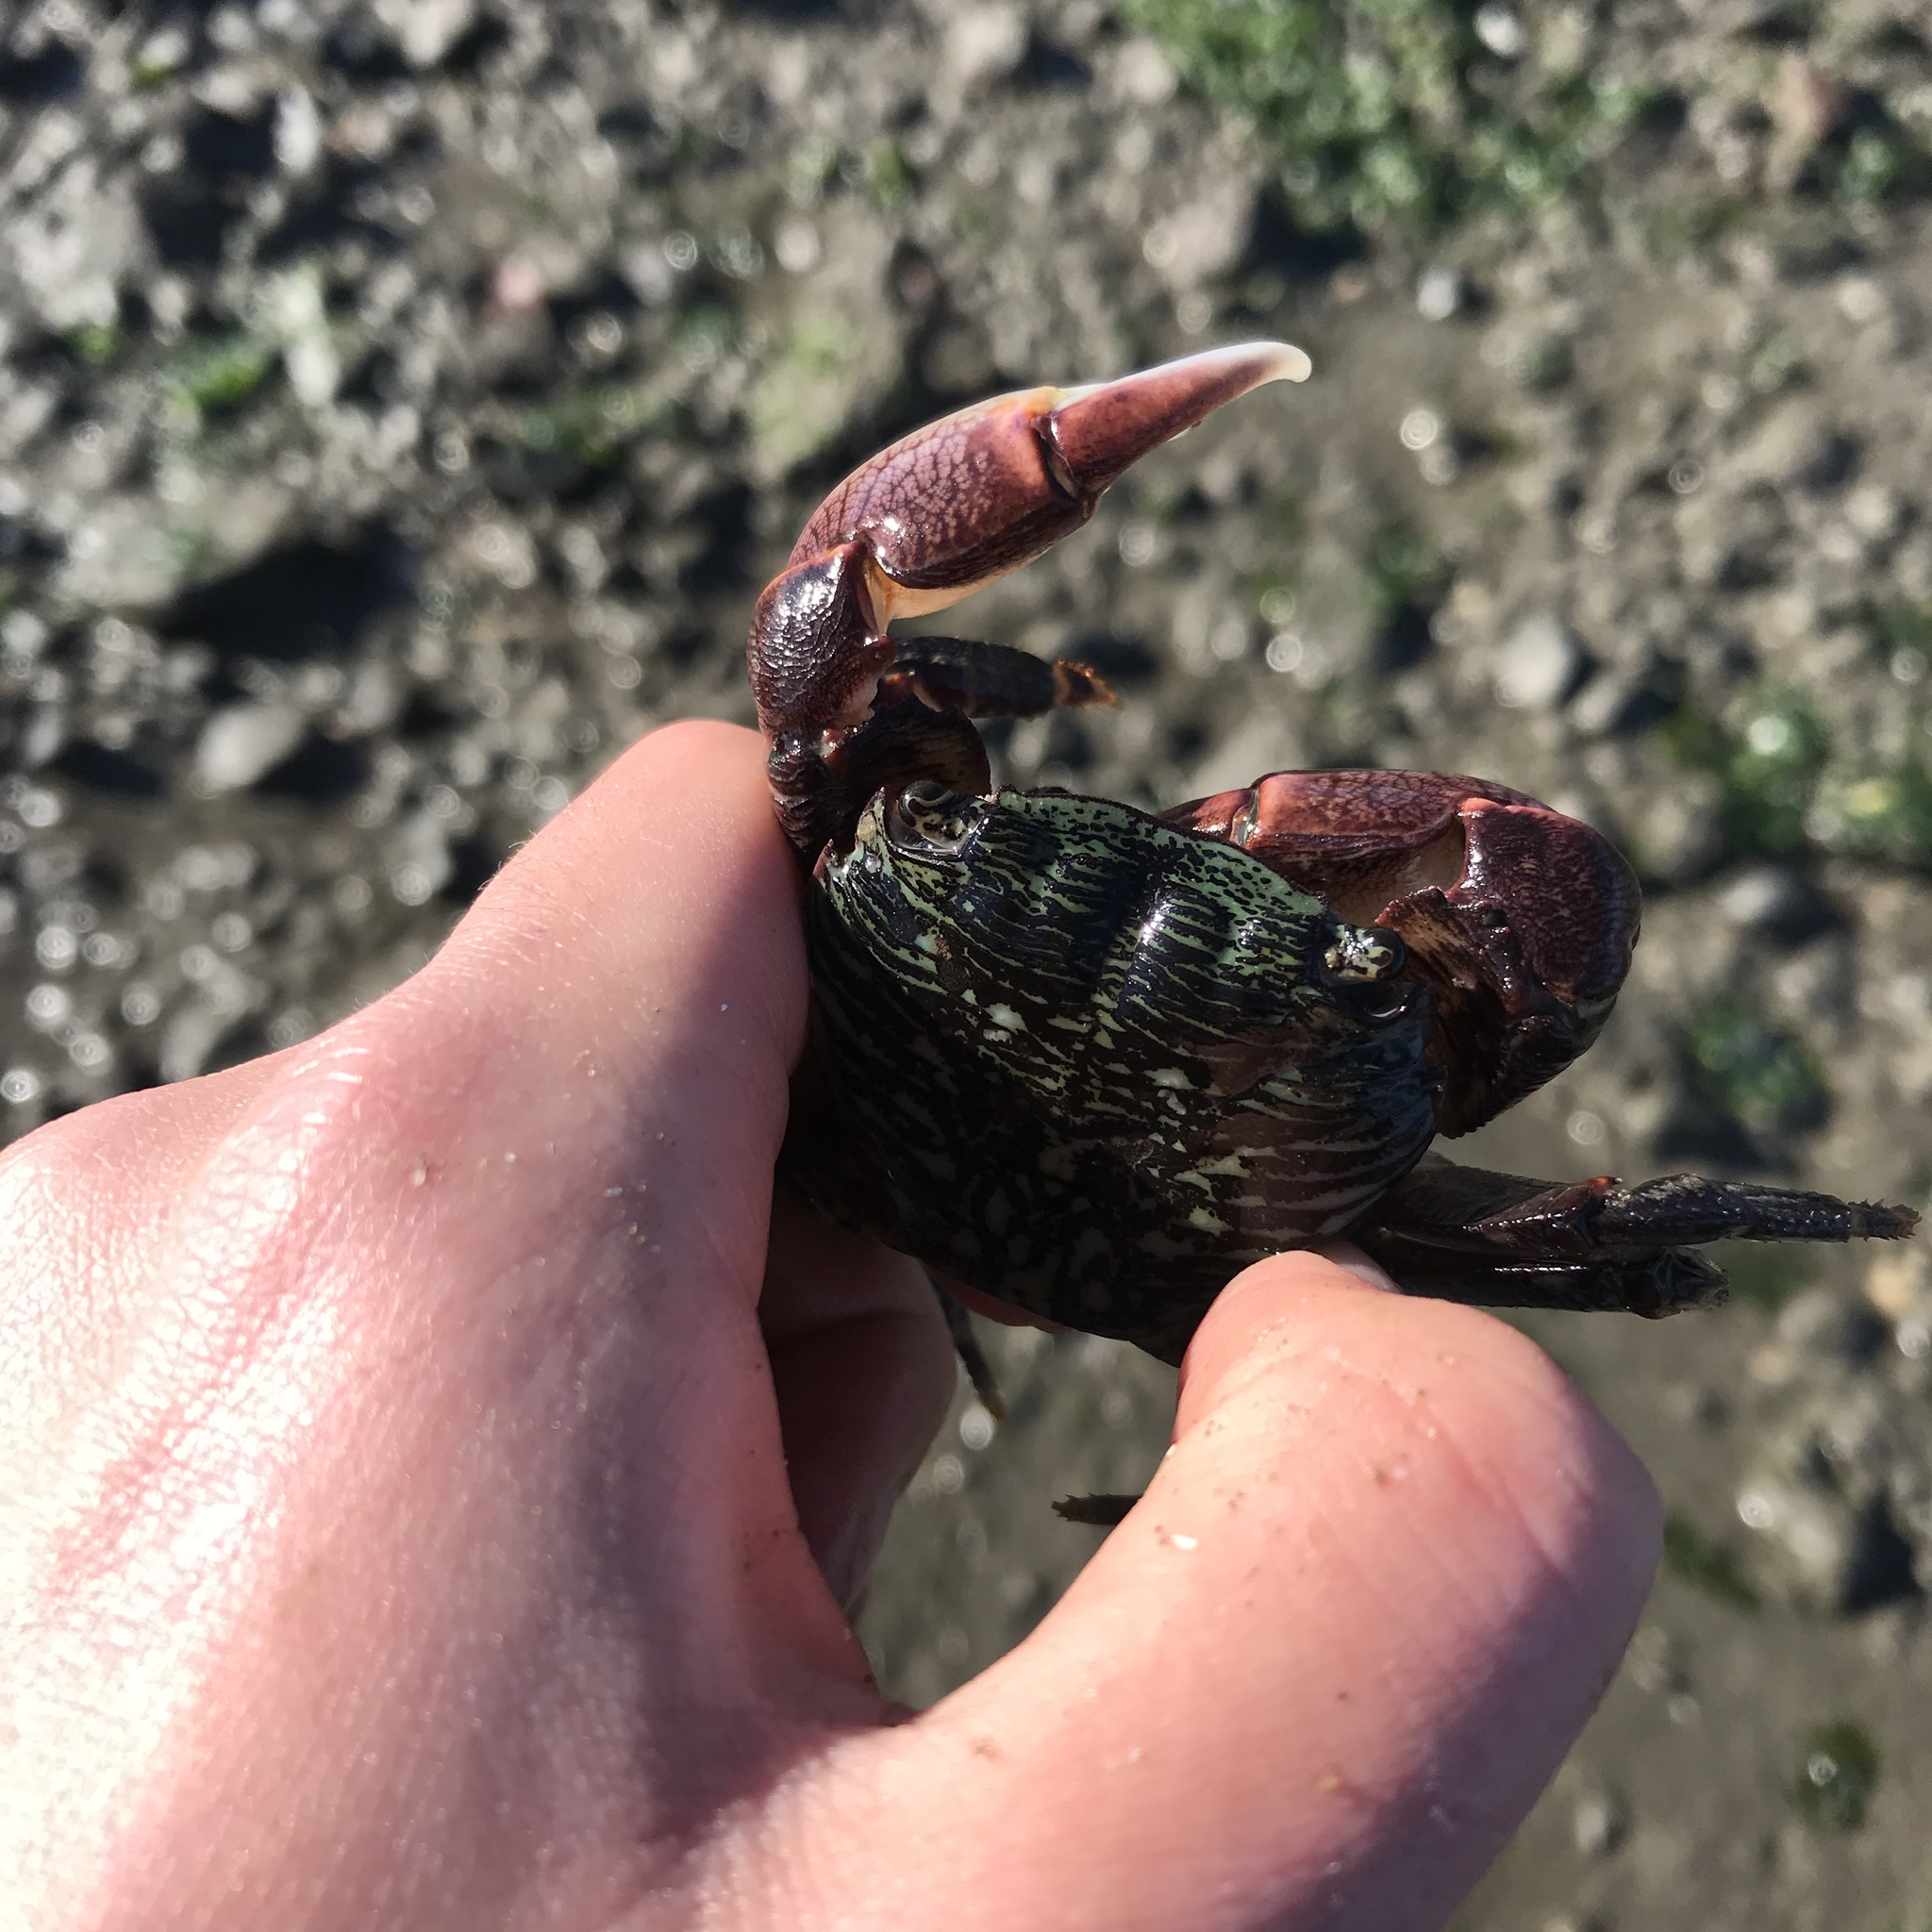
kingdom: Animalia
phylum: Arthropoda
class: Malacostraca
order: Decapoda
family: Grapsidae
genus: Pachygrapsus
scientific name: Pachygrapsus crassipes
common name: Striped shore crab
